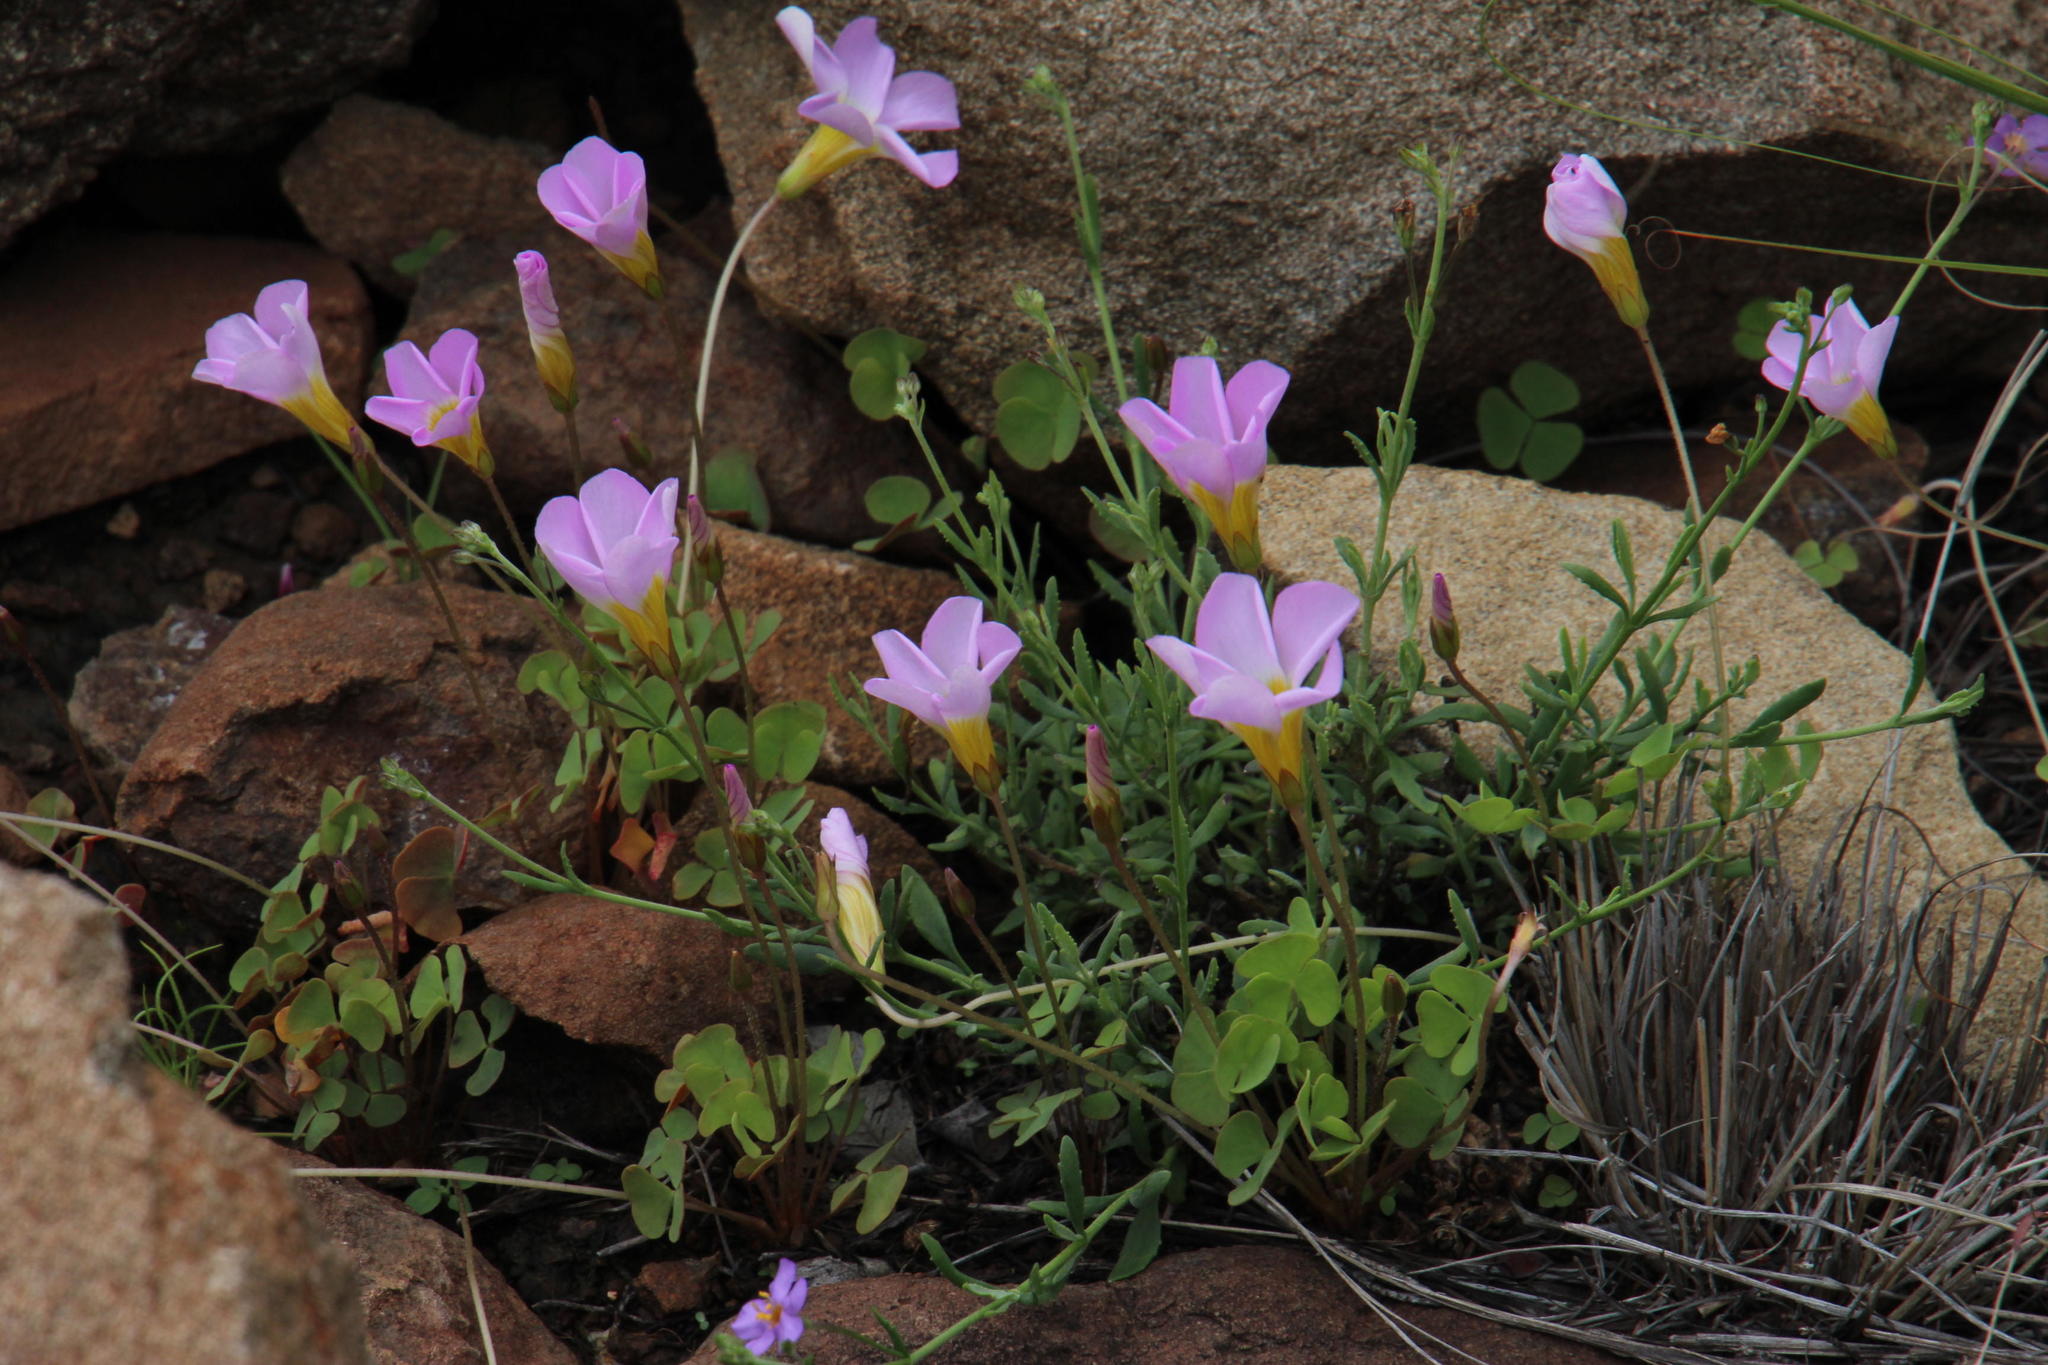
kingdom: Plantae
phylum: Tracheophyta
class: Magnoliopsida
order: Oxalidales
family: Oxalidaceae
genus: Oxalis
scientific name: Oxalis obliquifolia
